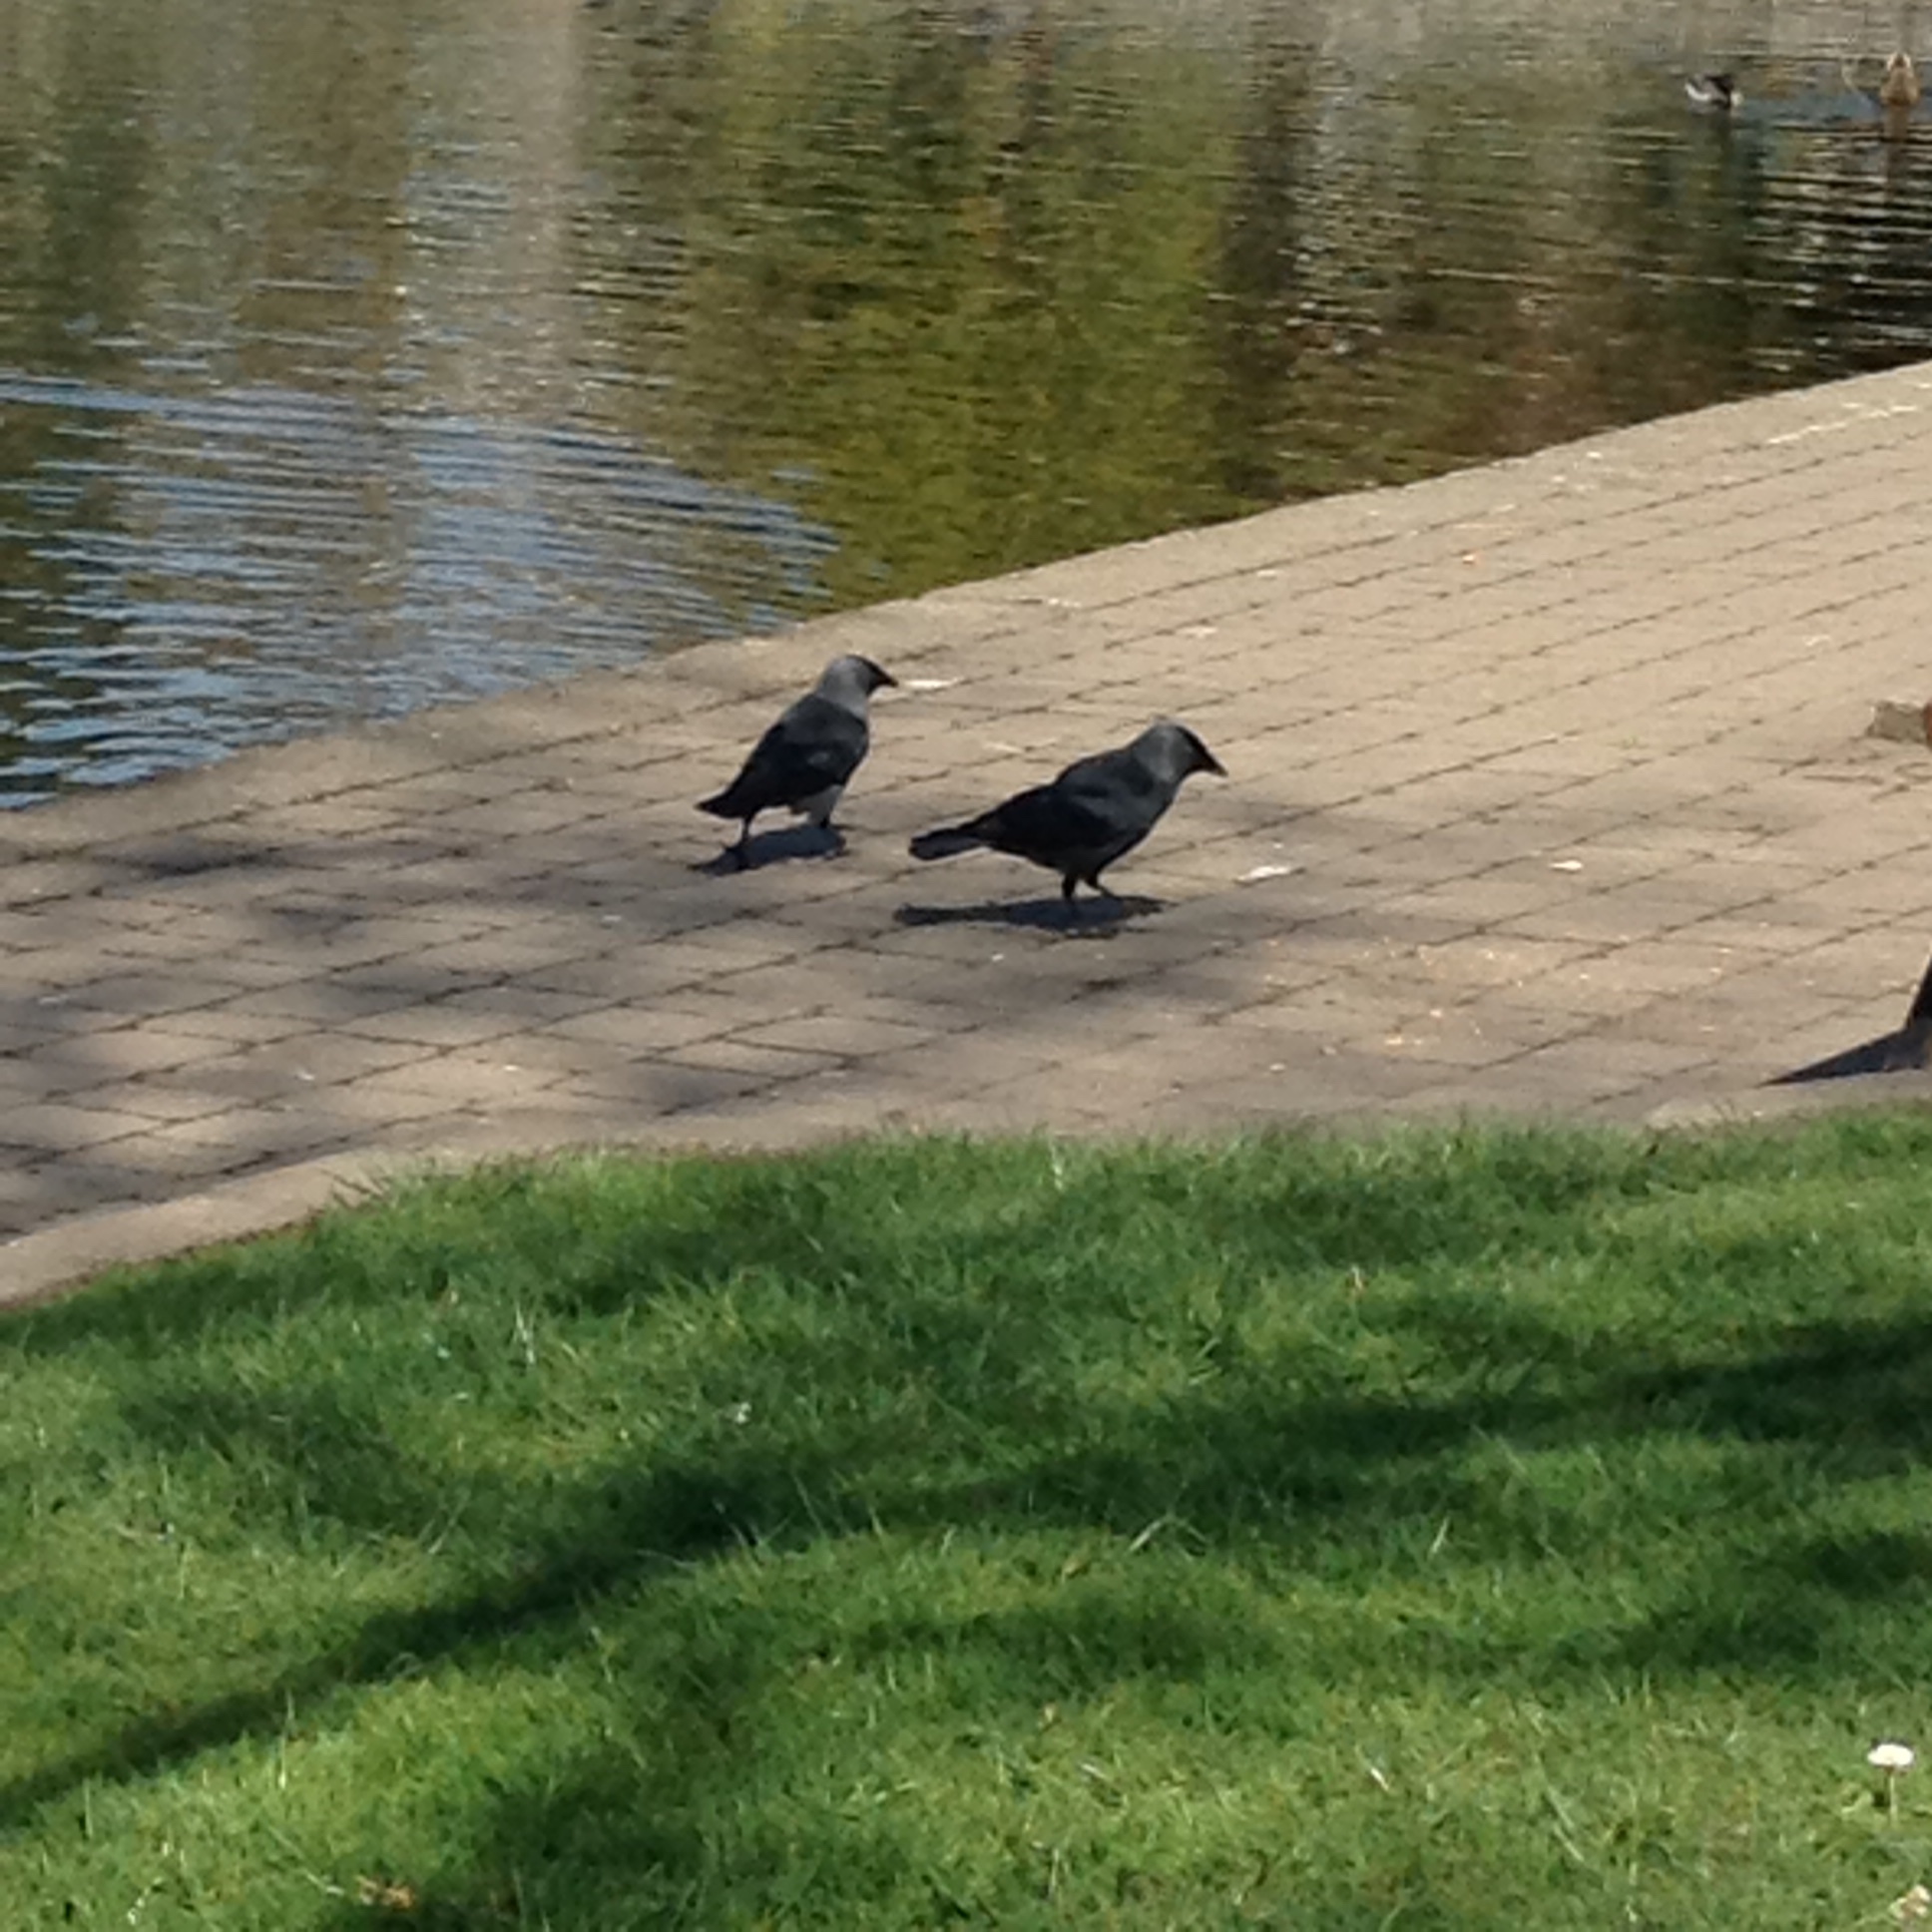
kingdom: Animalia
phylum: Chordata
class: Aves
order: Passeriformes
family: Corvidae
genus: Coloeus
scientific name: Coloeus monedula
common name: Western jackdaw
